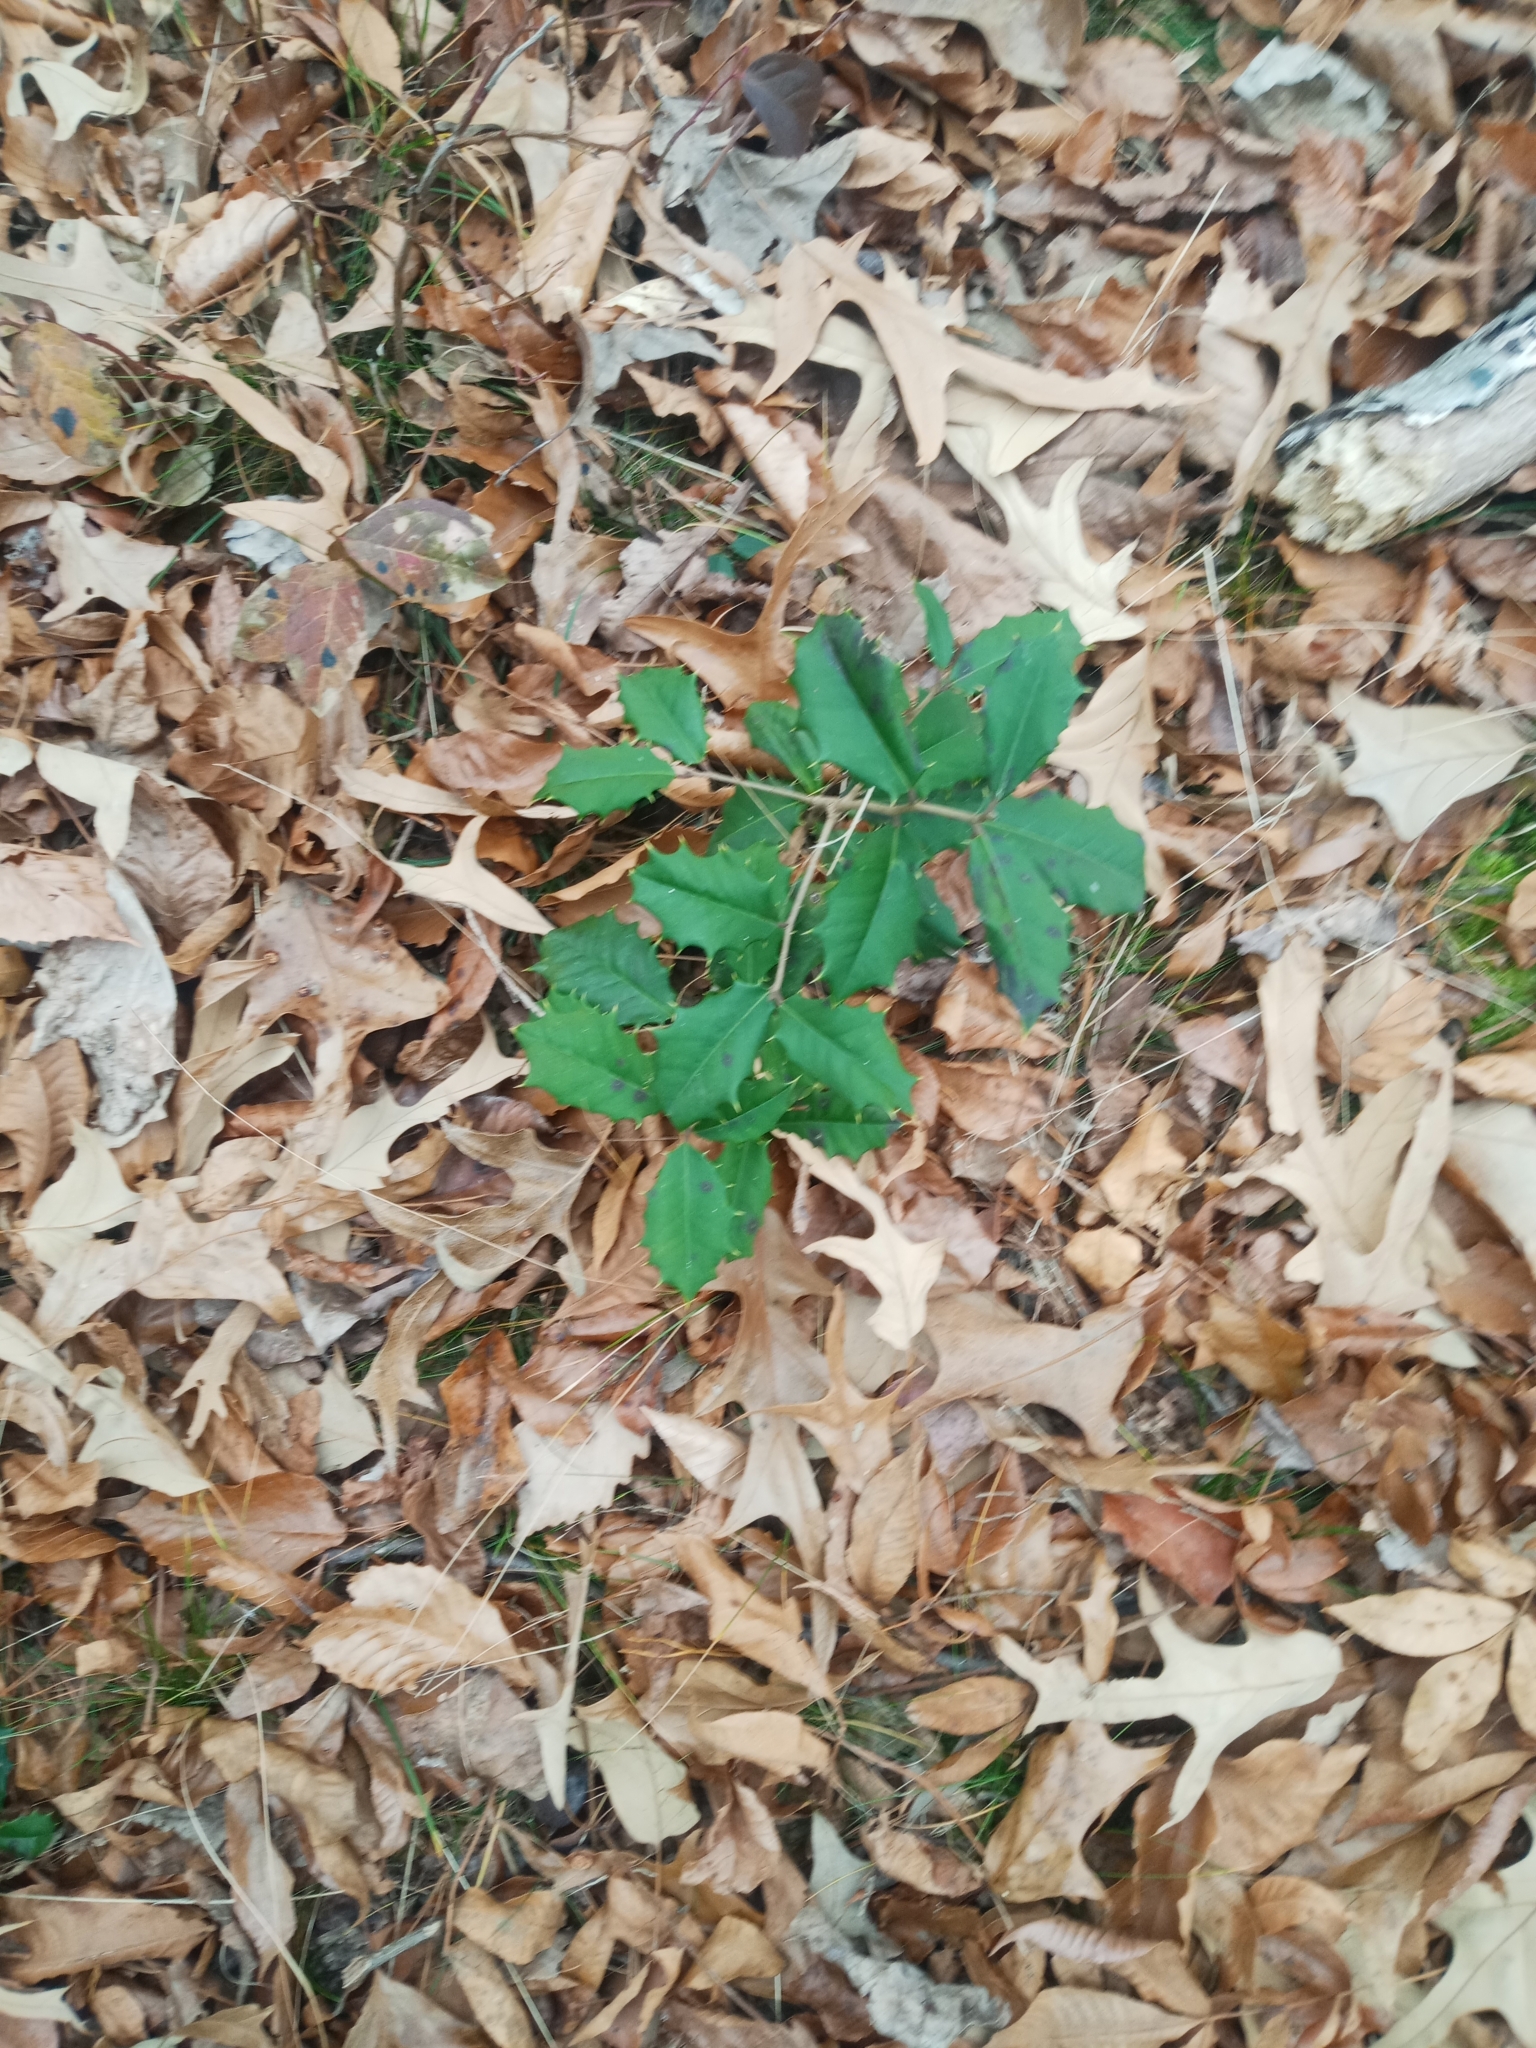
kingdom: Plantae
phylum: Tracheophyta
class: Magnoliopsida
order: Aquifoliales
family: Aquifoliaceae
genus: Ilex
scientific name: Ilex opaca
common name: American holly
